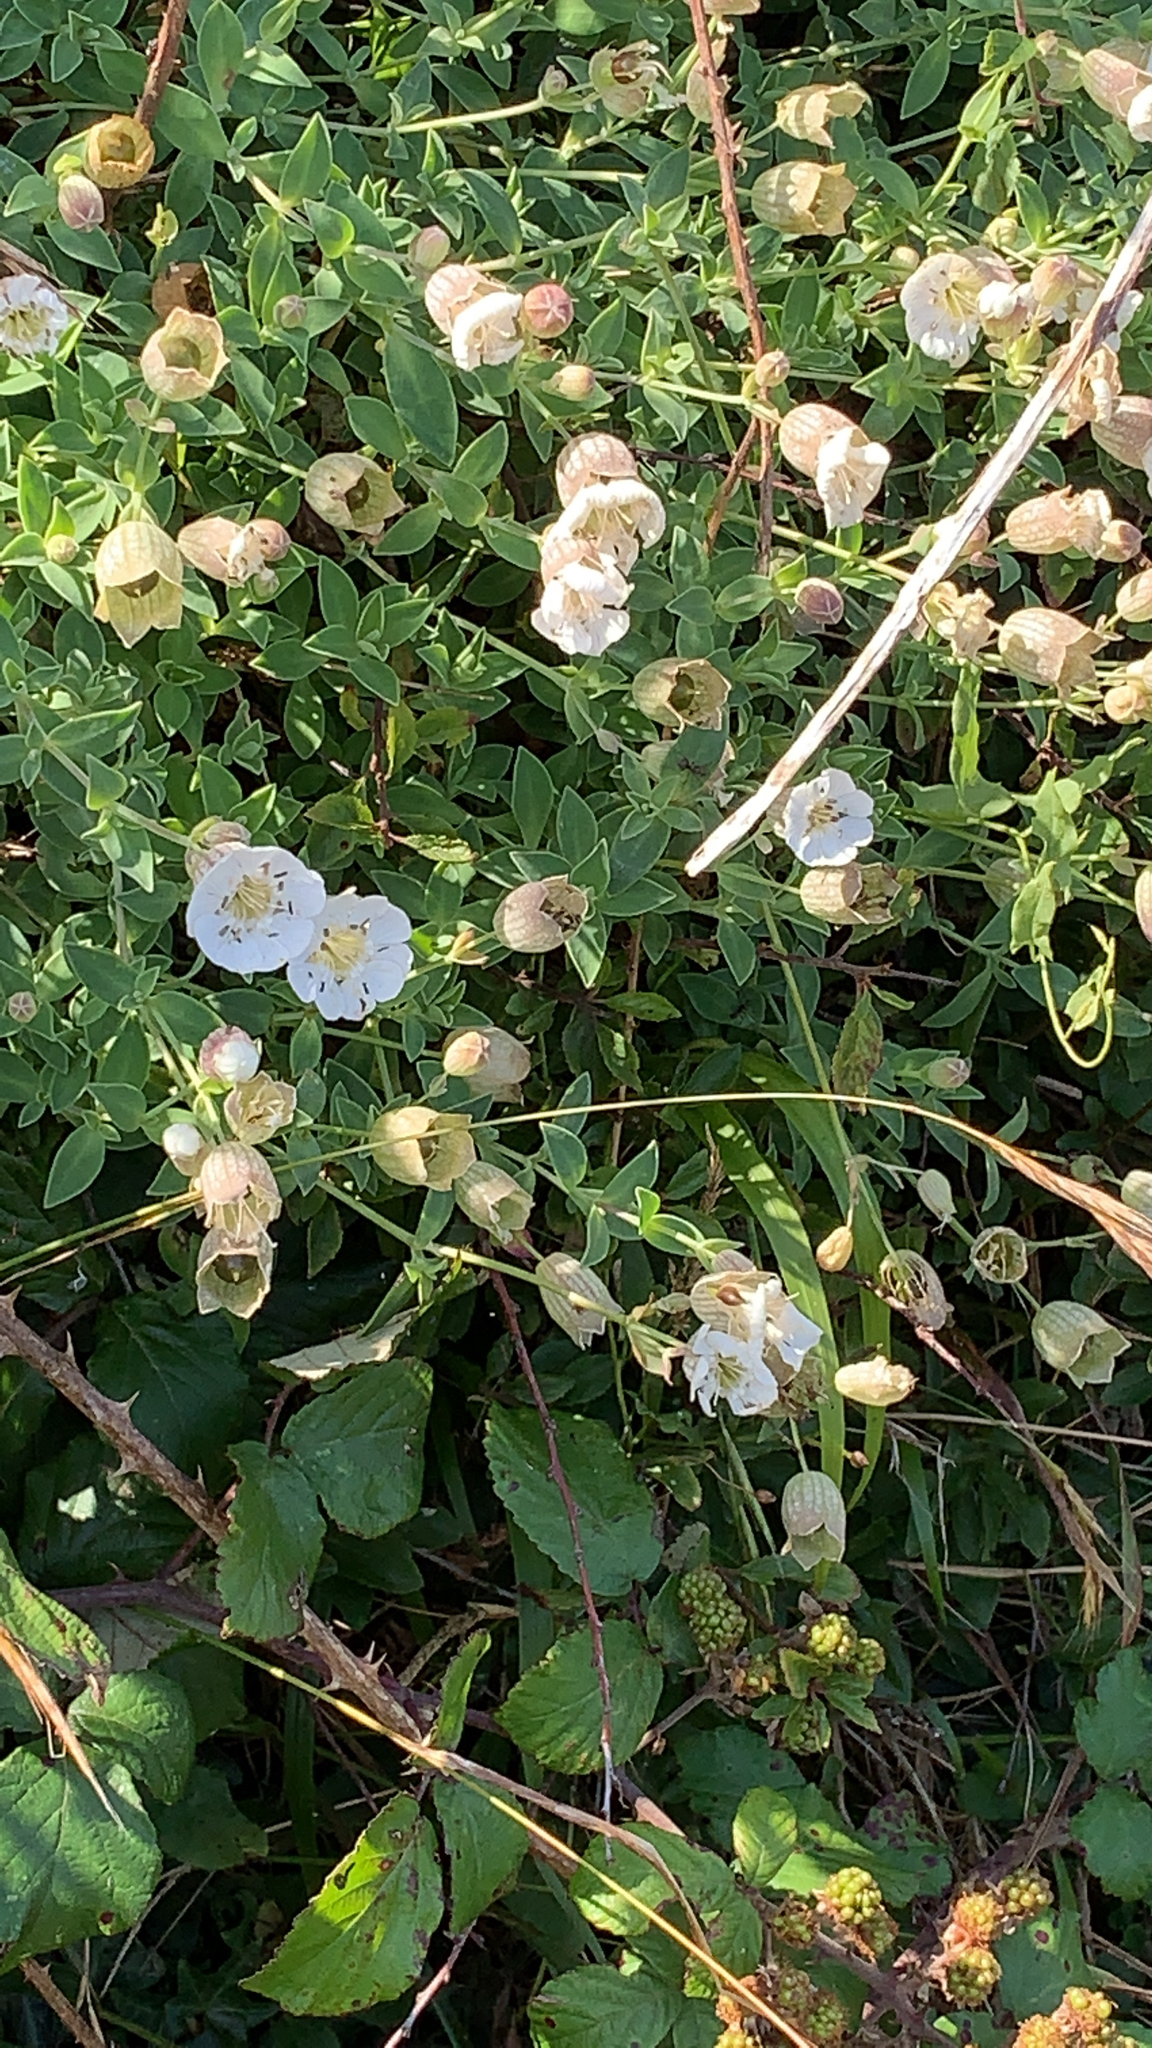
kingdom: Plantae
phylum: Tracheophyta
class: Magnoliopsida
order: Caryophyllales
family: Caryophyllaceae
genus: Silene
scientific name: Silene uniflora
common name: Sea campion
